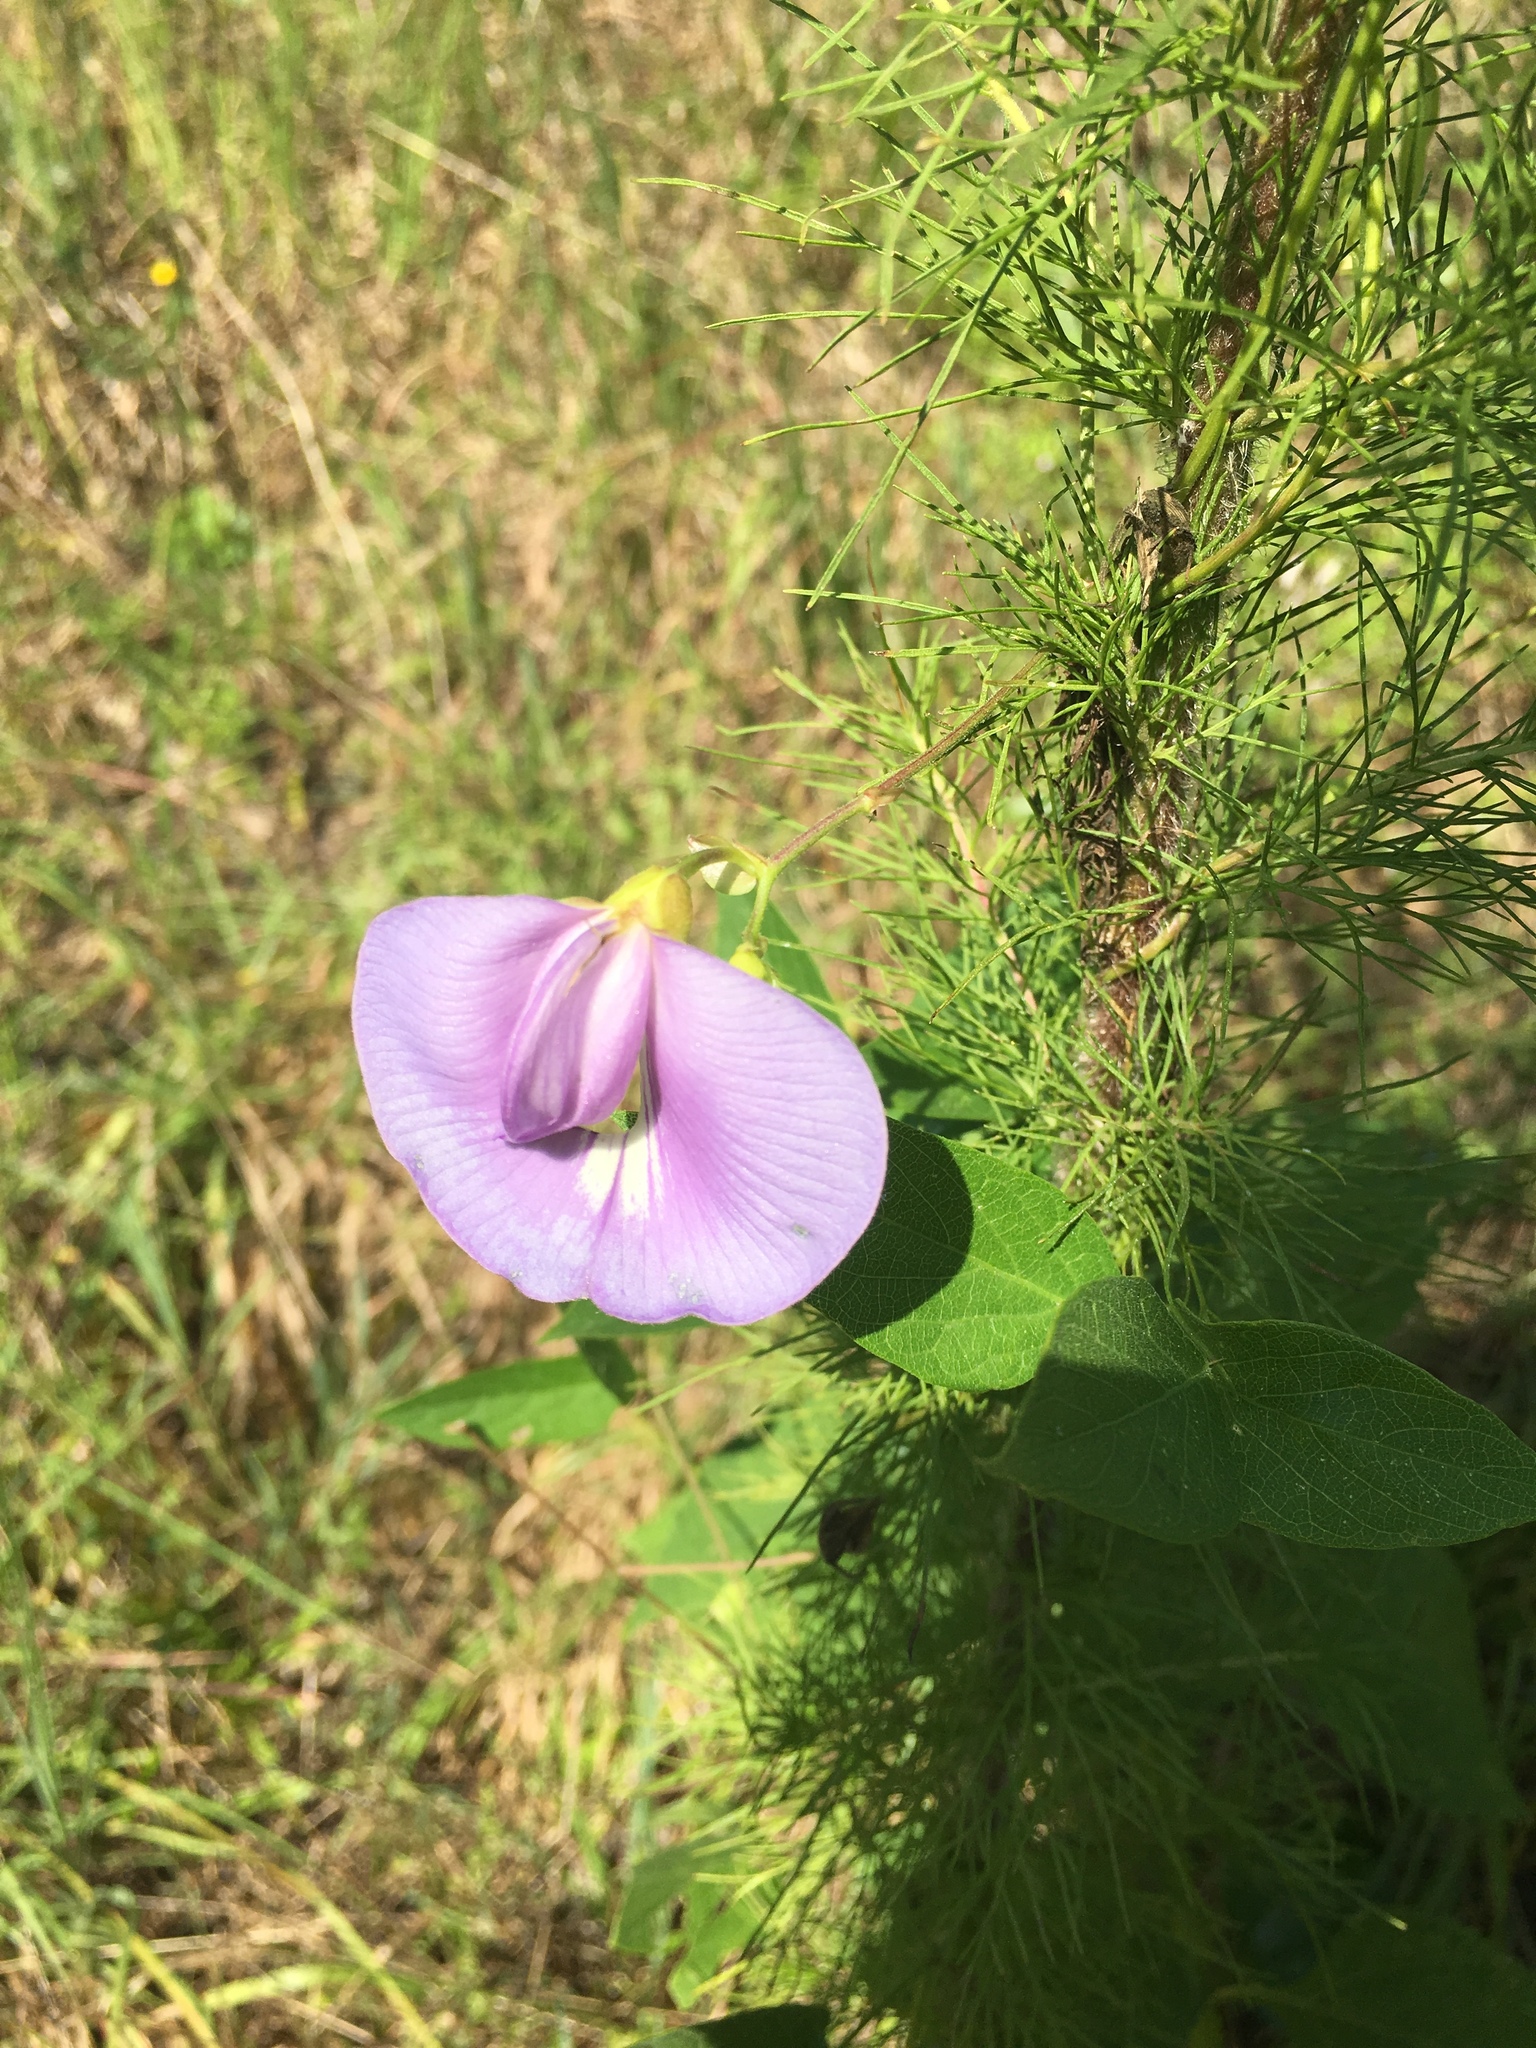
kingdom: Plantae
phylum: Tracheophyta
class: Magnoliopsida
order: Asterales
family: Asteraceae
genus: Eupatorium
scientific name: Eupatorium capillifolium
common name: Dog-fennel
